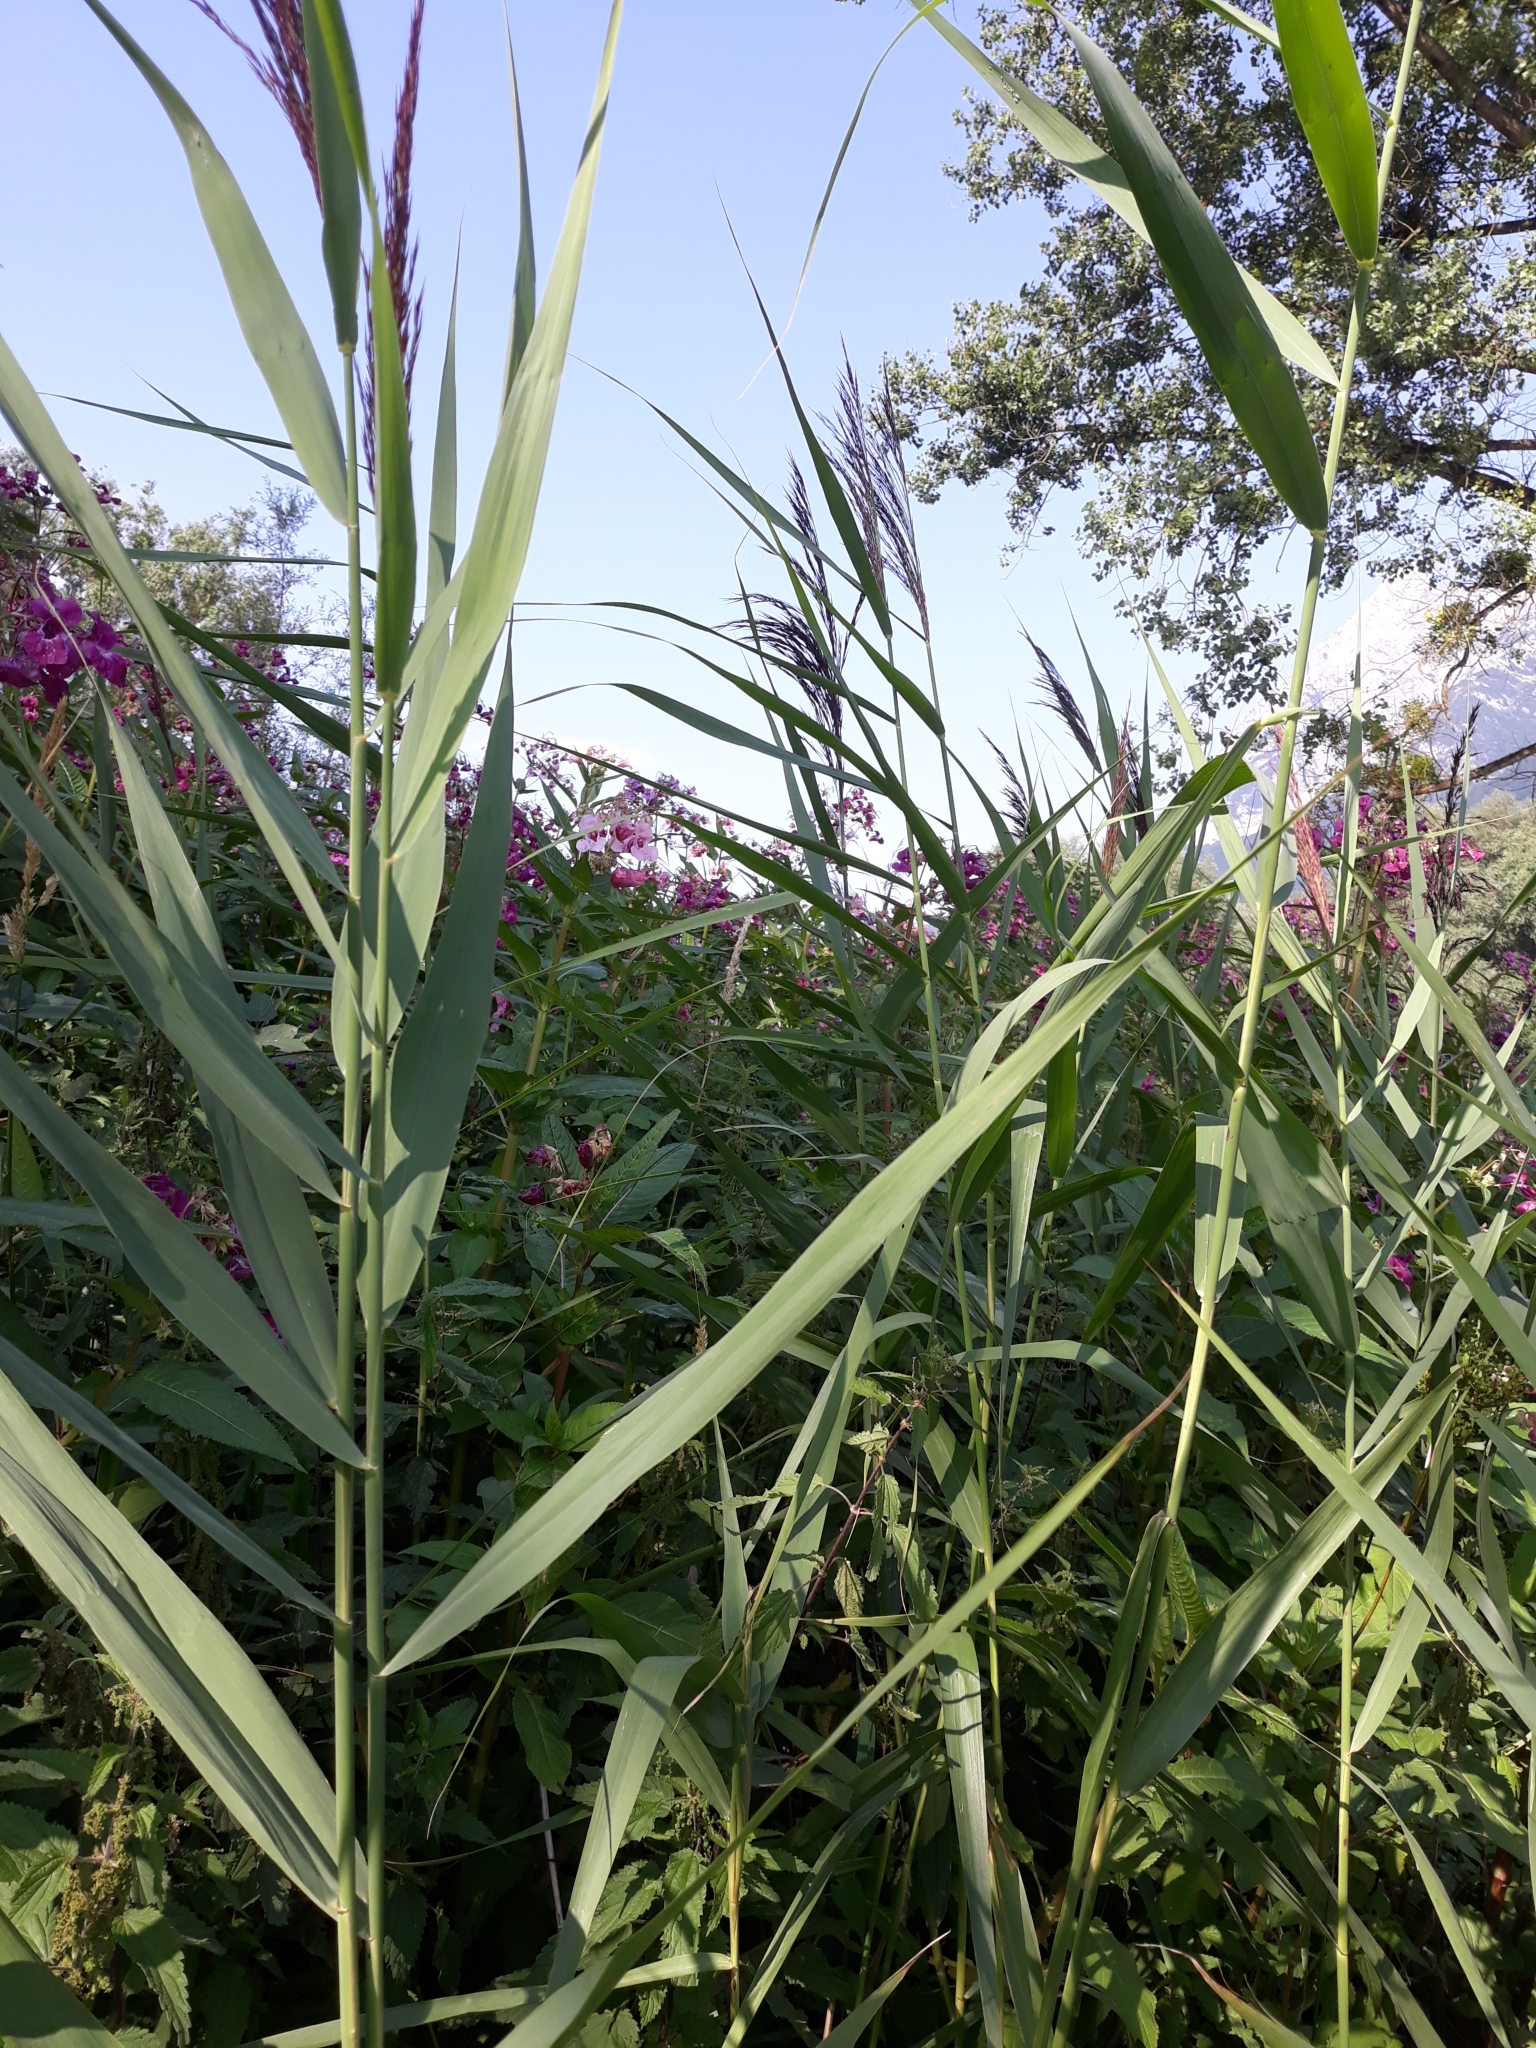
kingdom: Plantae
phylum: Tracheophyta
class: Liliopsida
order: Poales
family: Poaceae
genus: Phragmites
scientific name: Phragmites australis
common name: Common reed
